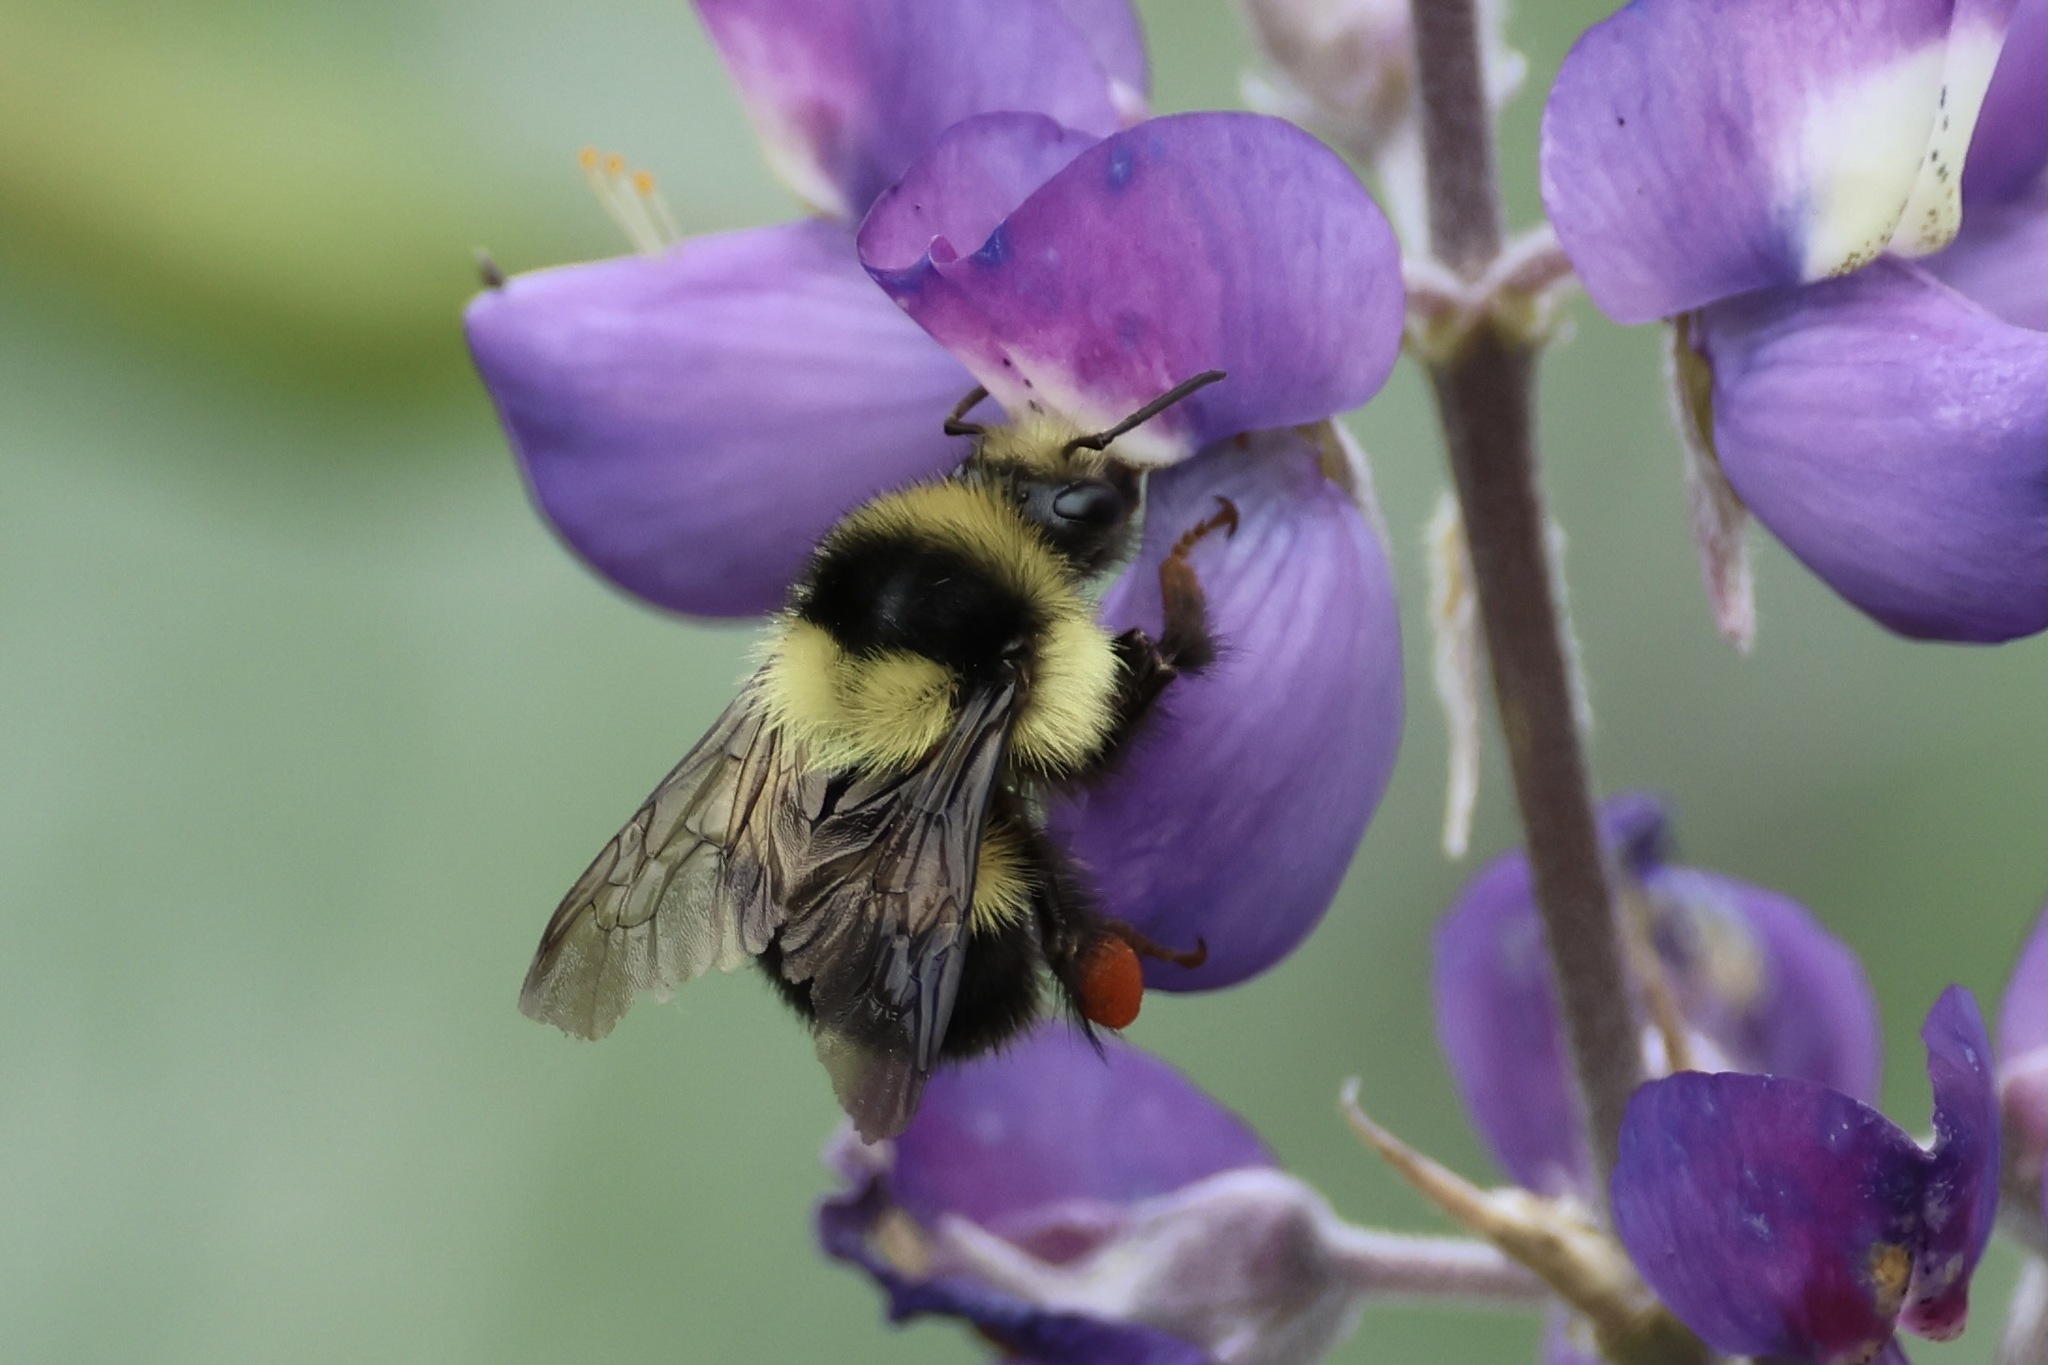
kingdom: Animalia
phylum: Arthropoda
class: Insecta
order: Hymenoptera
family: Apidae
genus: Bombus
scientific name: Bombus melanopygus
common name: Black tail bumble bee
